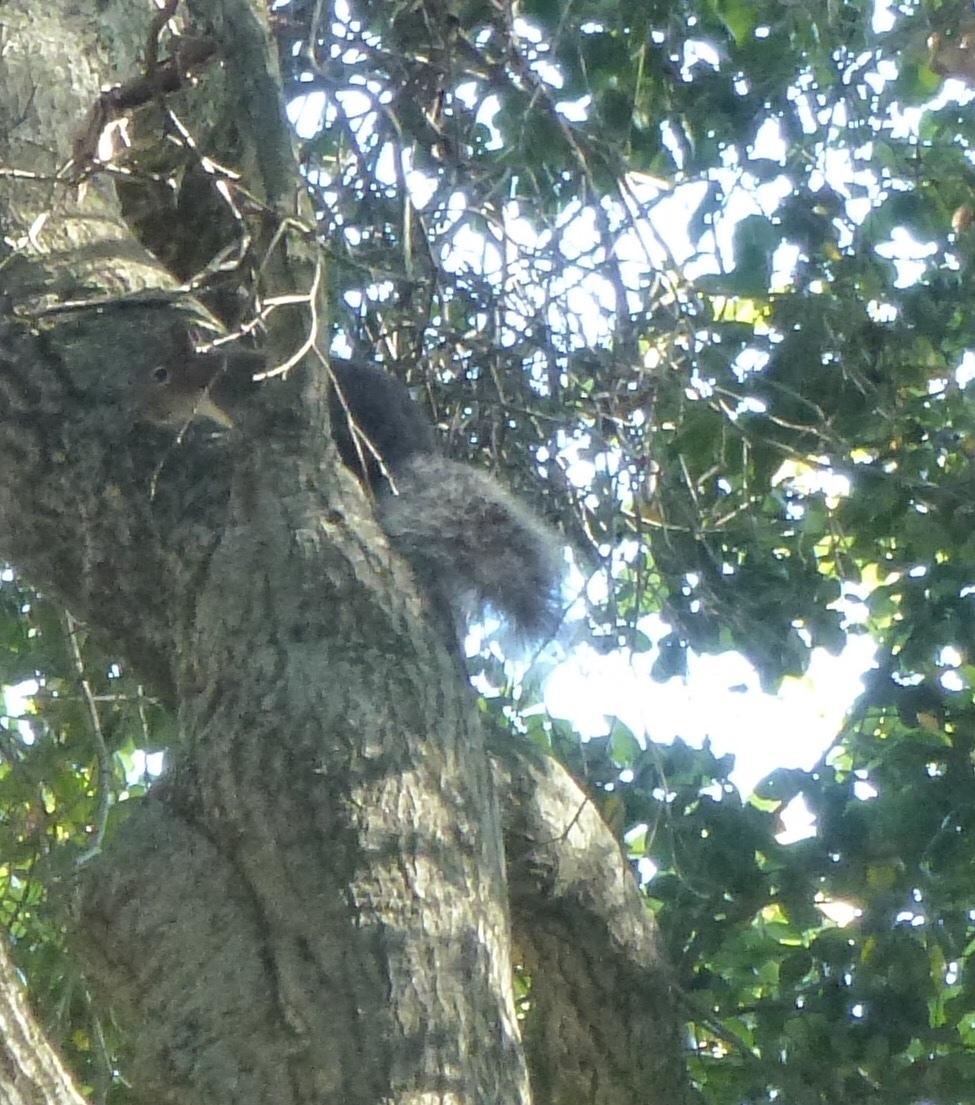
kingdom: Animalia
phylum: Chordata
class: Mammalia
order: Rodentia
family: Sciuridae
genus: Sciurus
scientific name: Sciurus griseus
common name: Western gray squirrel
